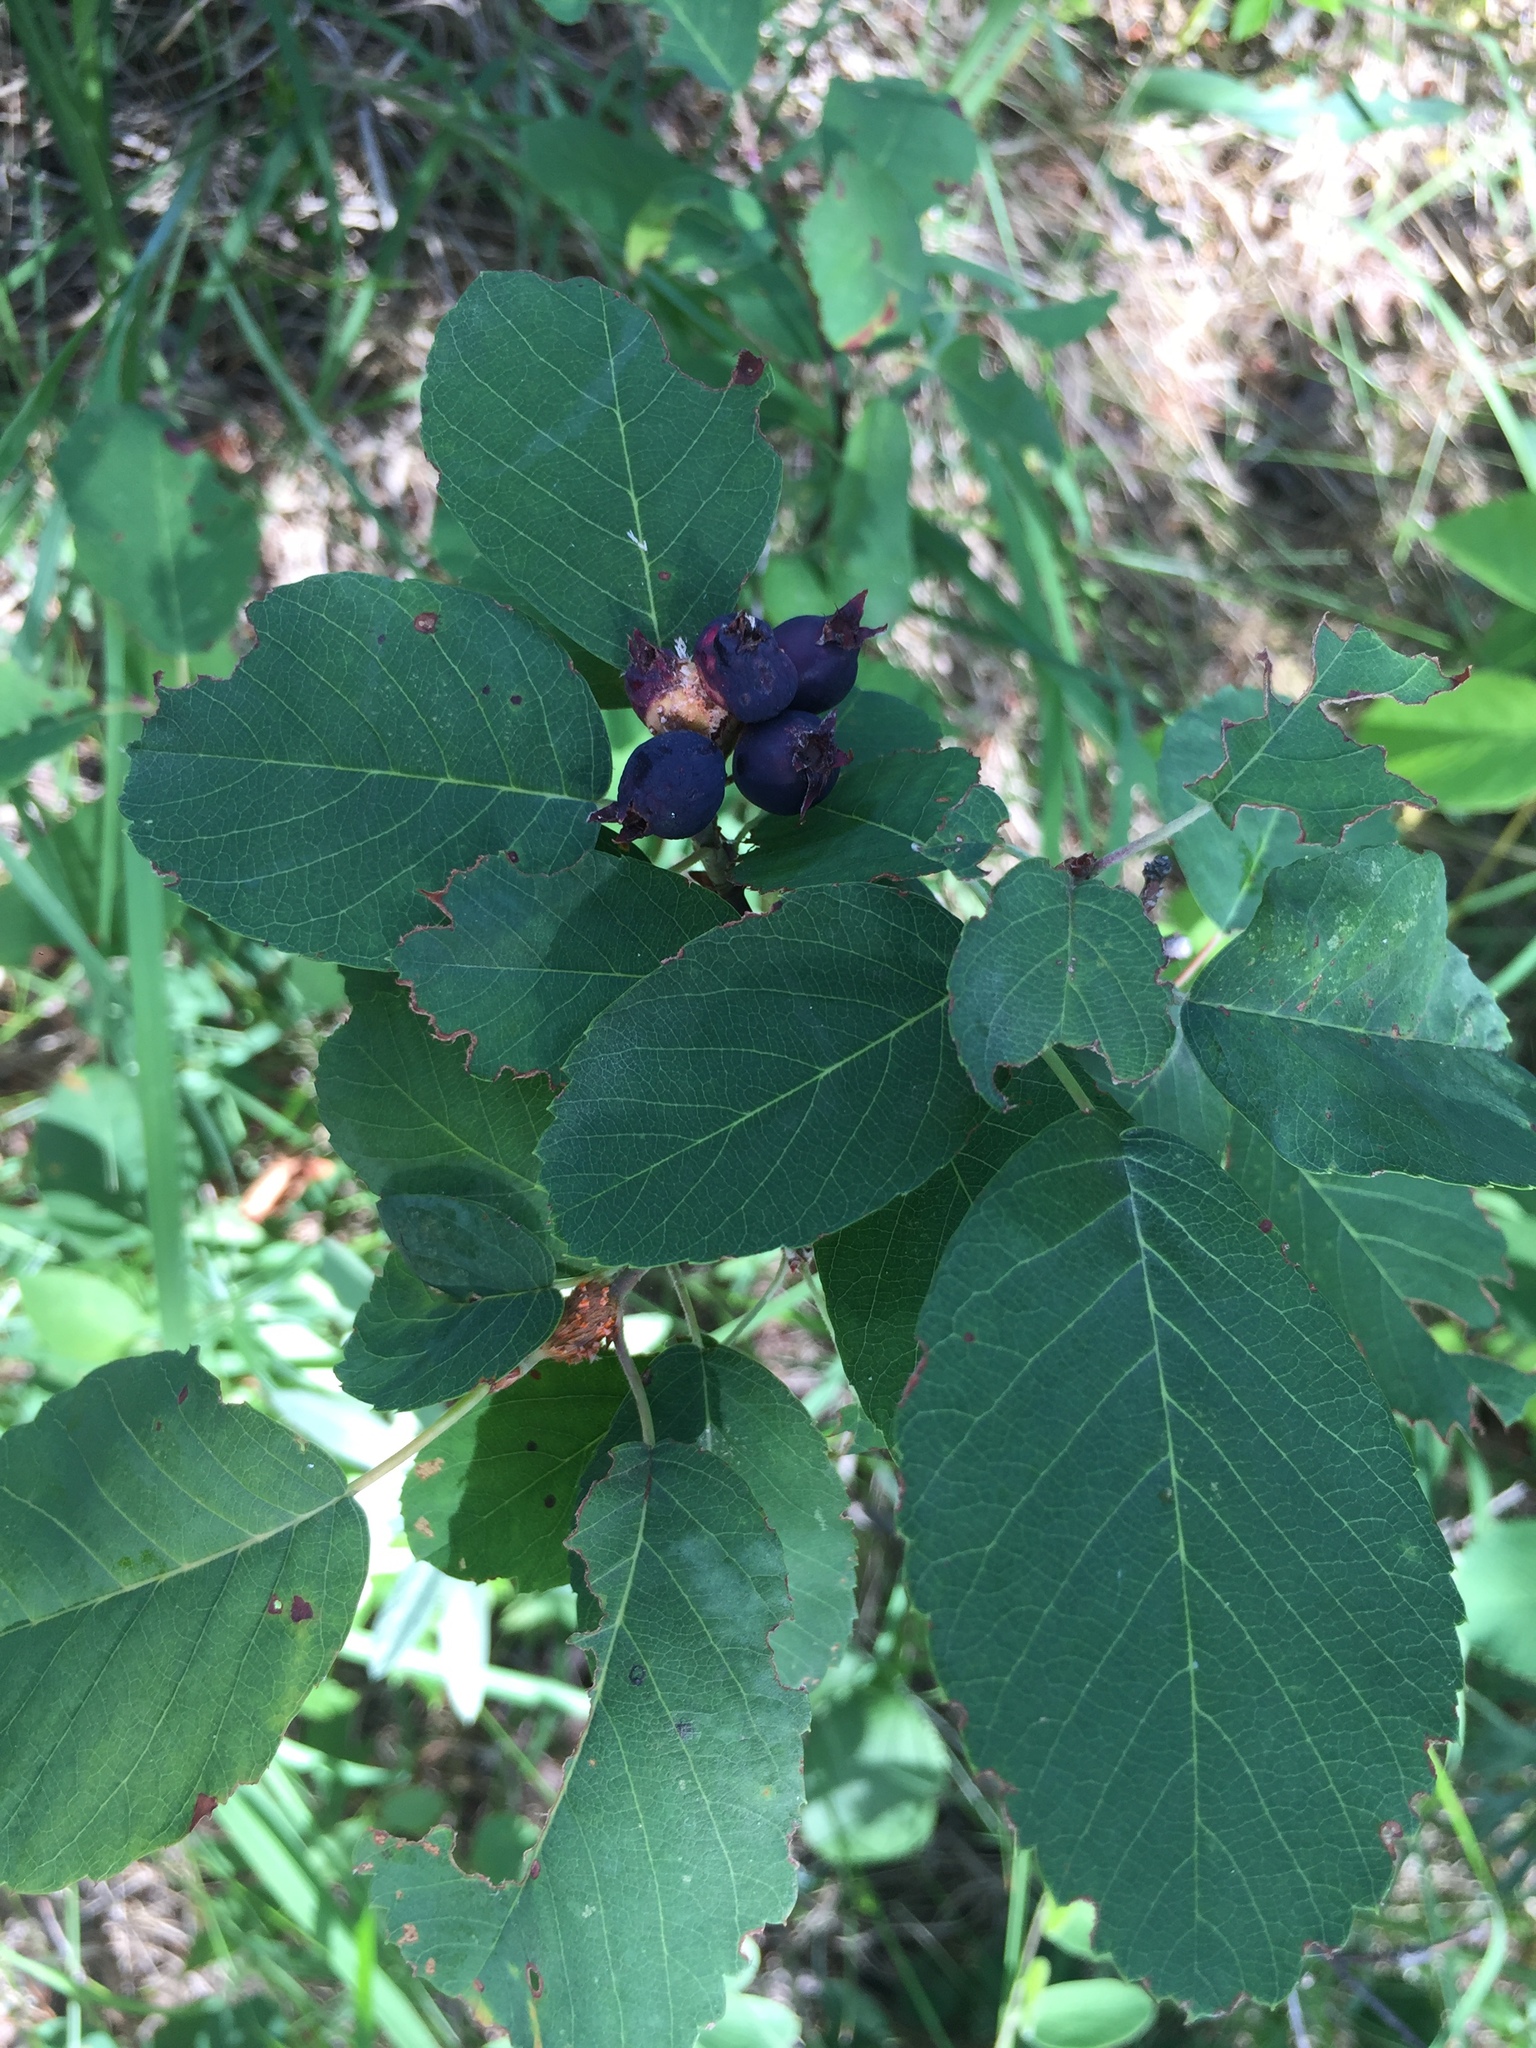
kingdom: Plantae
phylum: Tracheophyta
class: Magnoliopsida
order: Rosales
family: Rosaceae
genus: Amelanchier
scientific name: Amelanchier alnifolia
